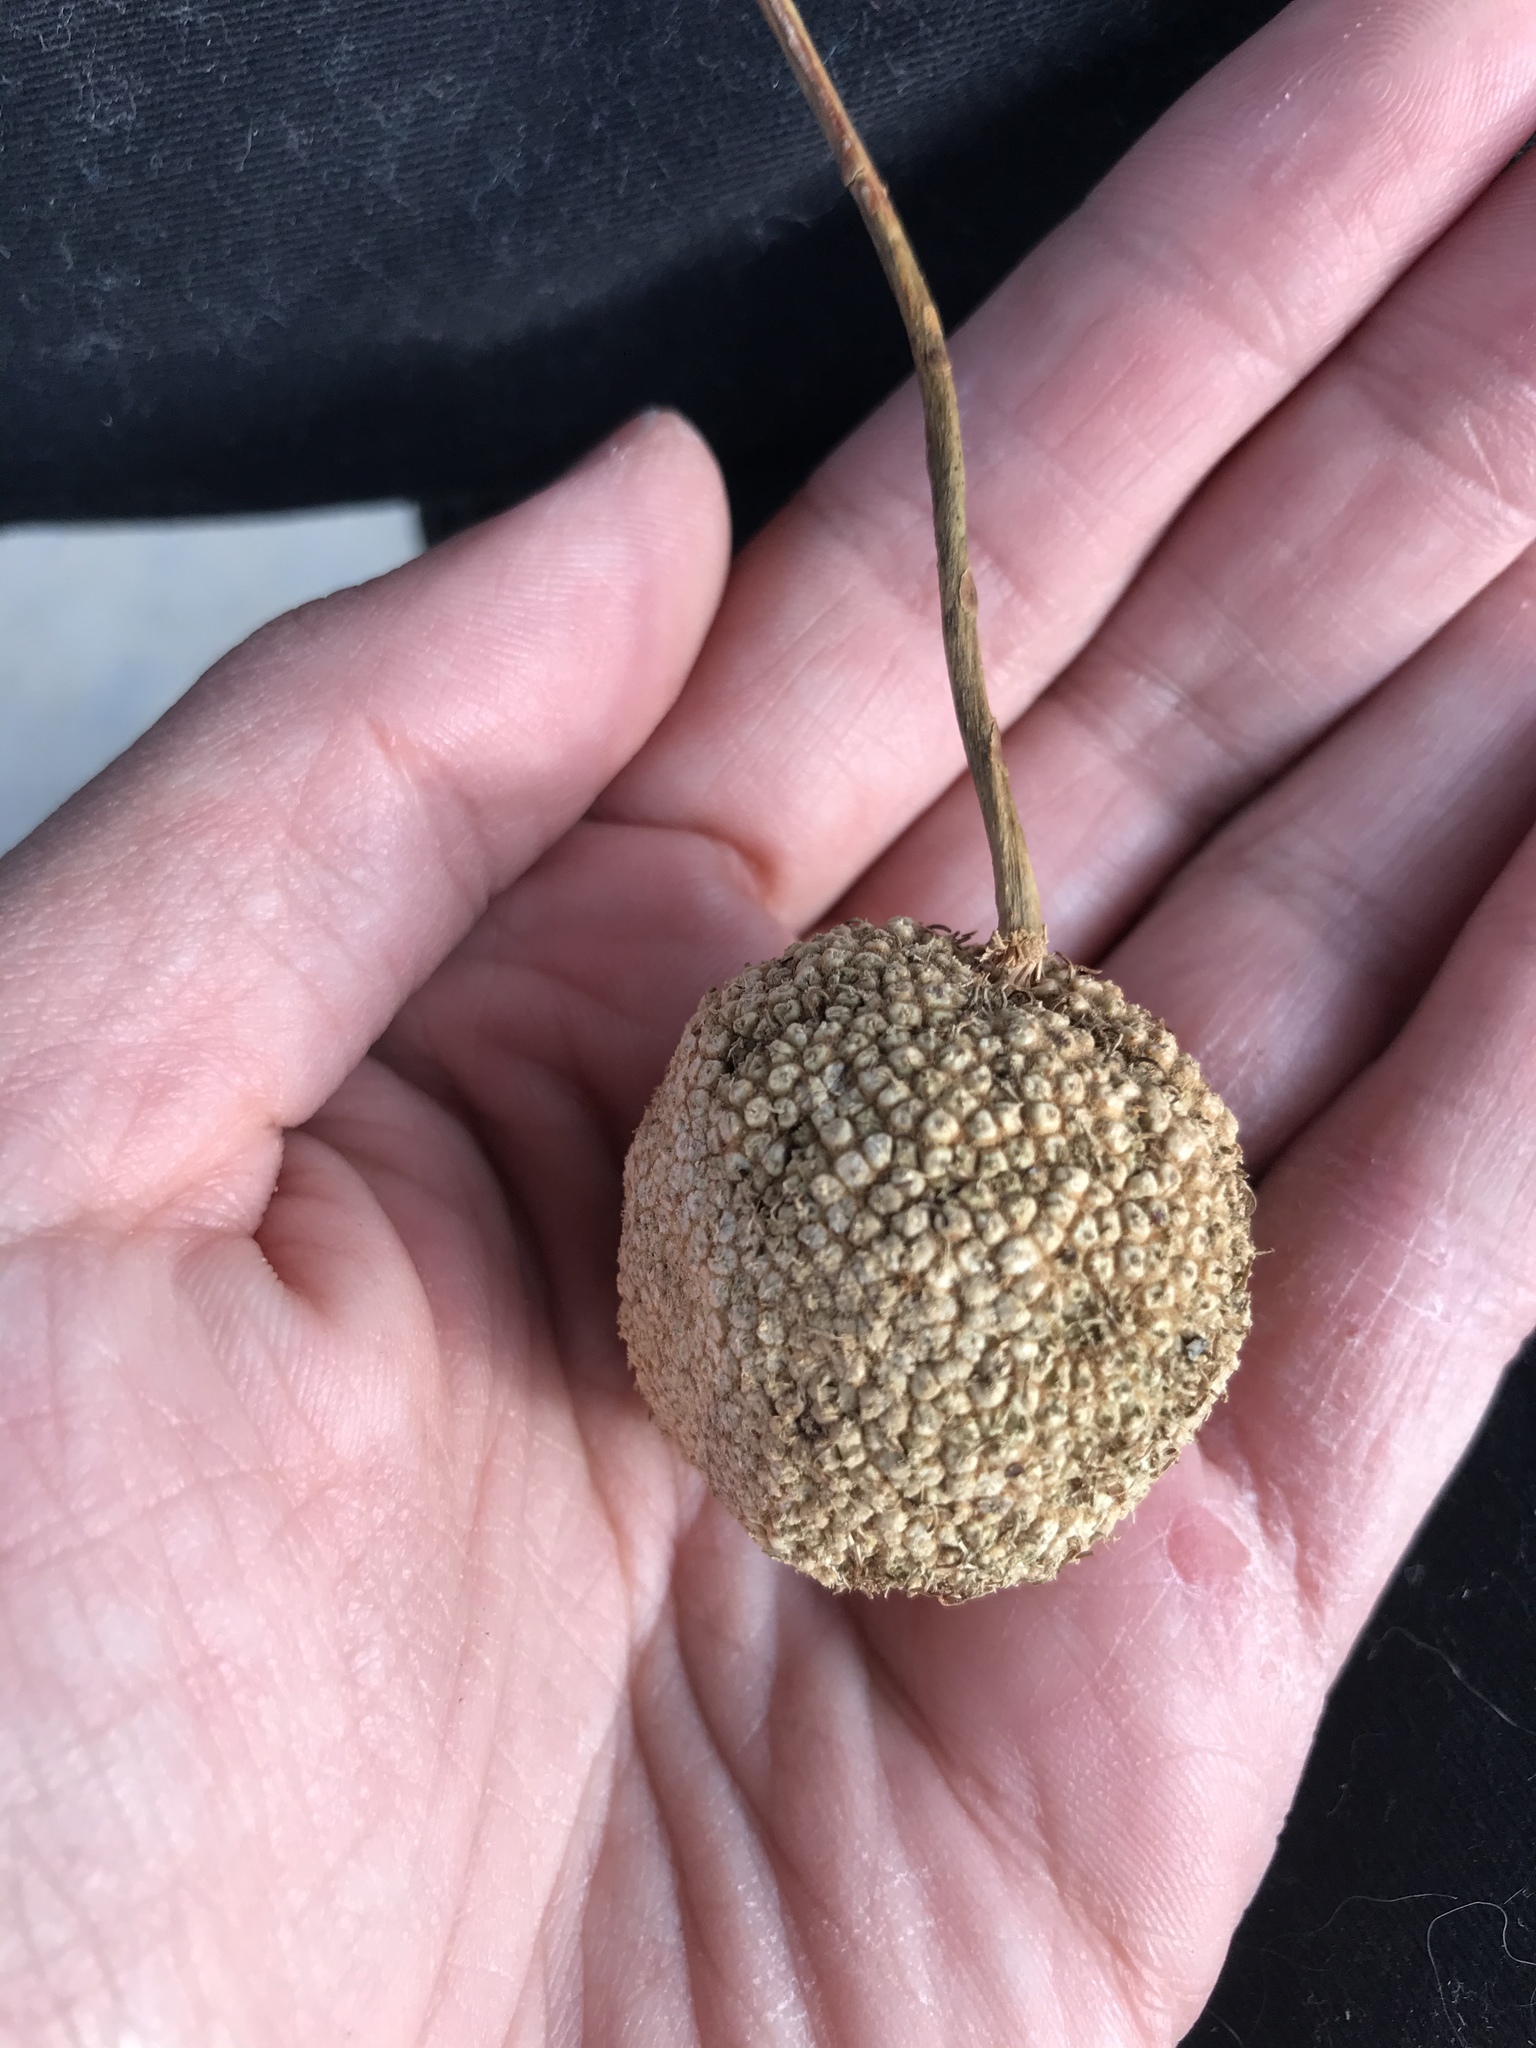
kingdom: Plantae
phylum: Tracheophyta
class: Magnoliopsida
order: Proteales
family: Platanaceae
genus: Platanus
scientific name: Platanus occidentalis
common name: American sycamore
